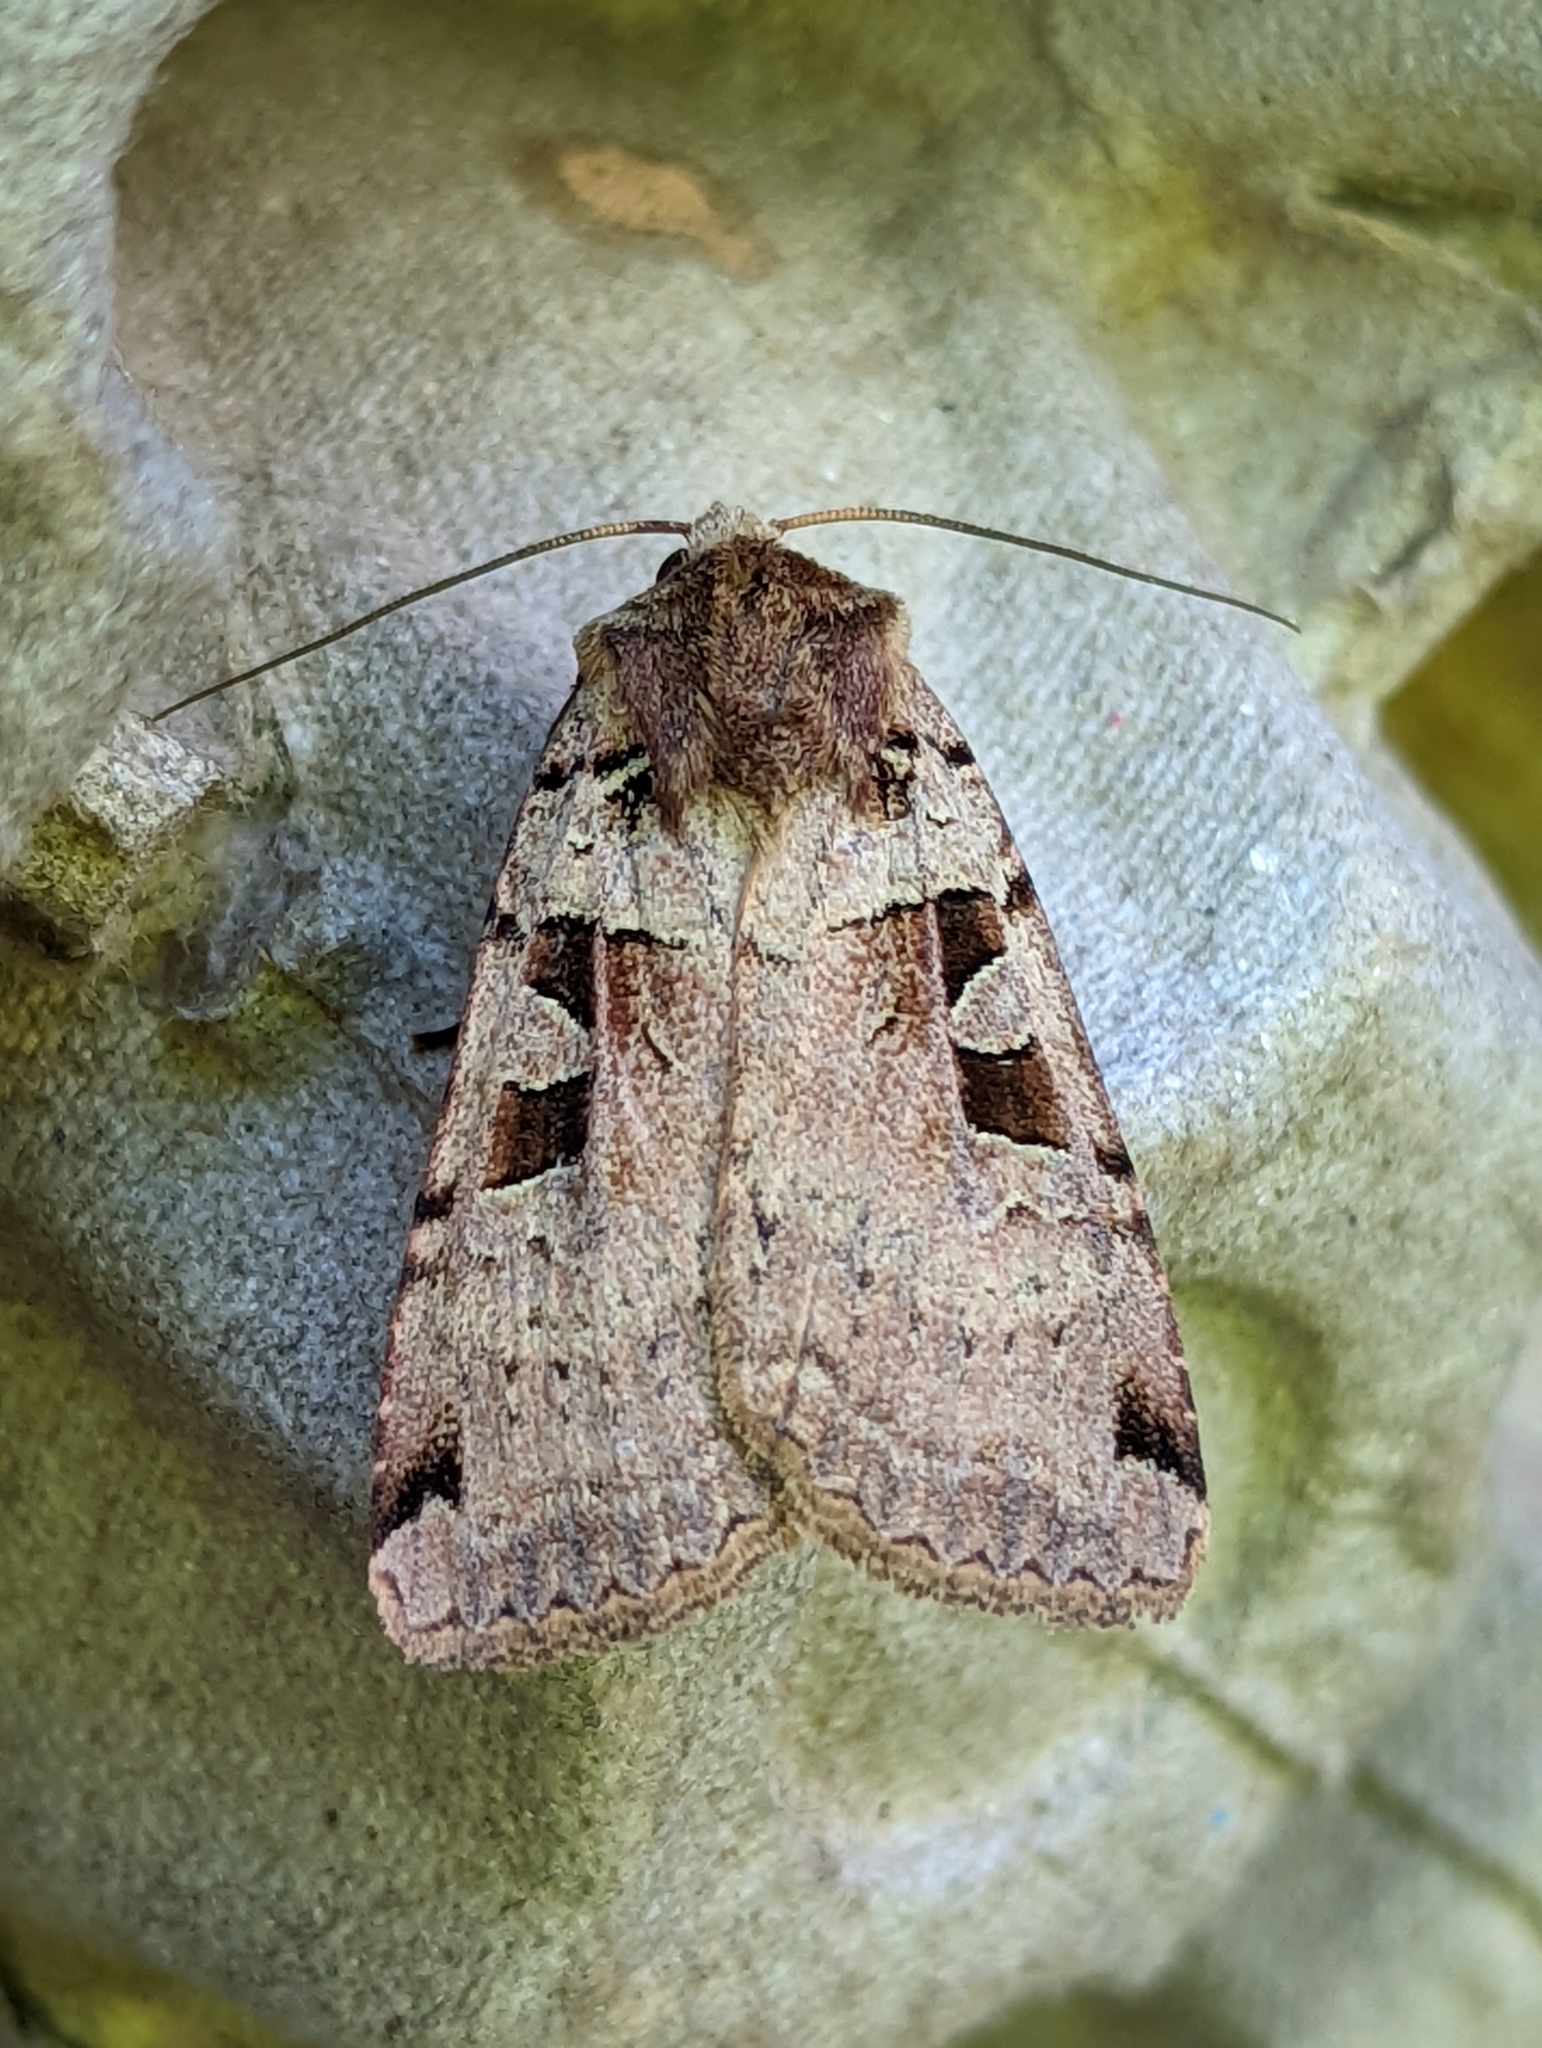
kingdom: Animalia
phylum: Arthropoda
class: Insecta
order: Lepidoptera
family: Noctuidae
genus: Xestia
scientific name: Xestia triangulum
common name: Double square-spot
